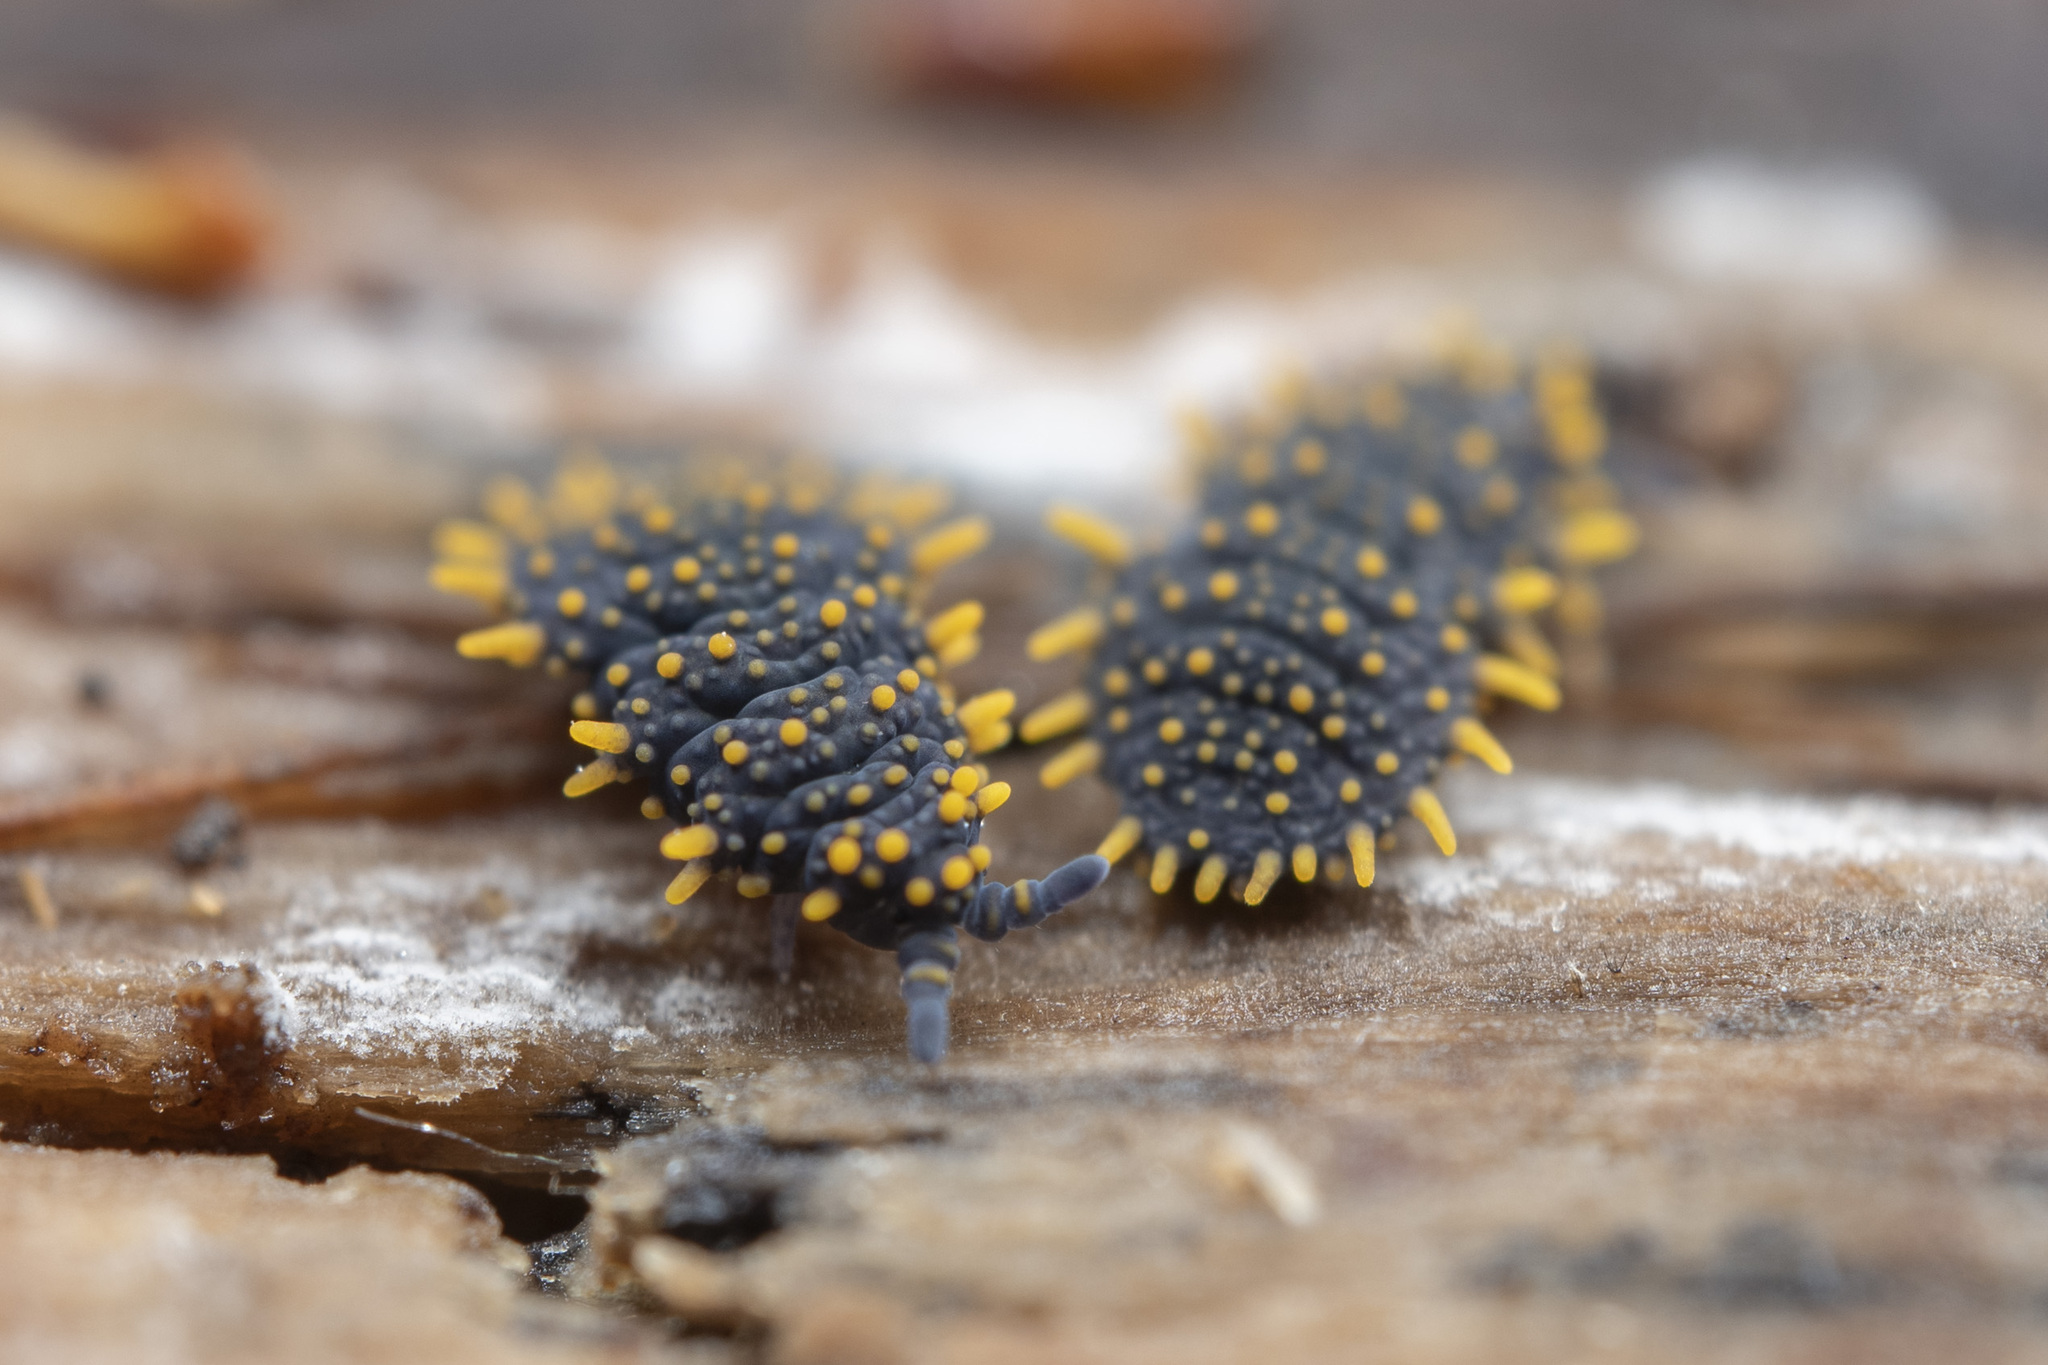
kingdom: Animalia
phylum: Arthropoda
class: Collembola
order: Poduromorpha
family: Neanuridae
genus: Holacanthella
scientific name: Holacanthella paucispinosa
